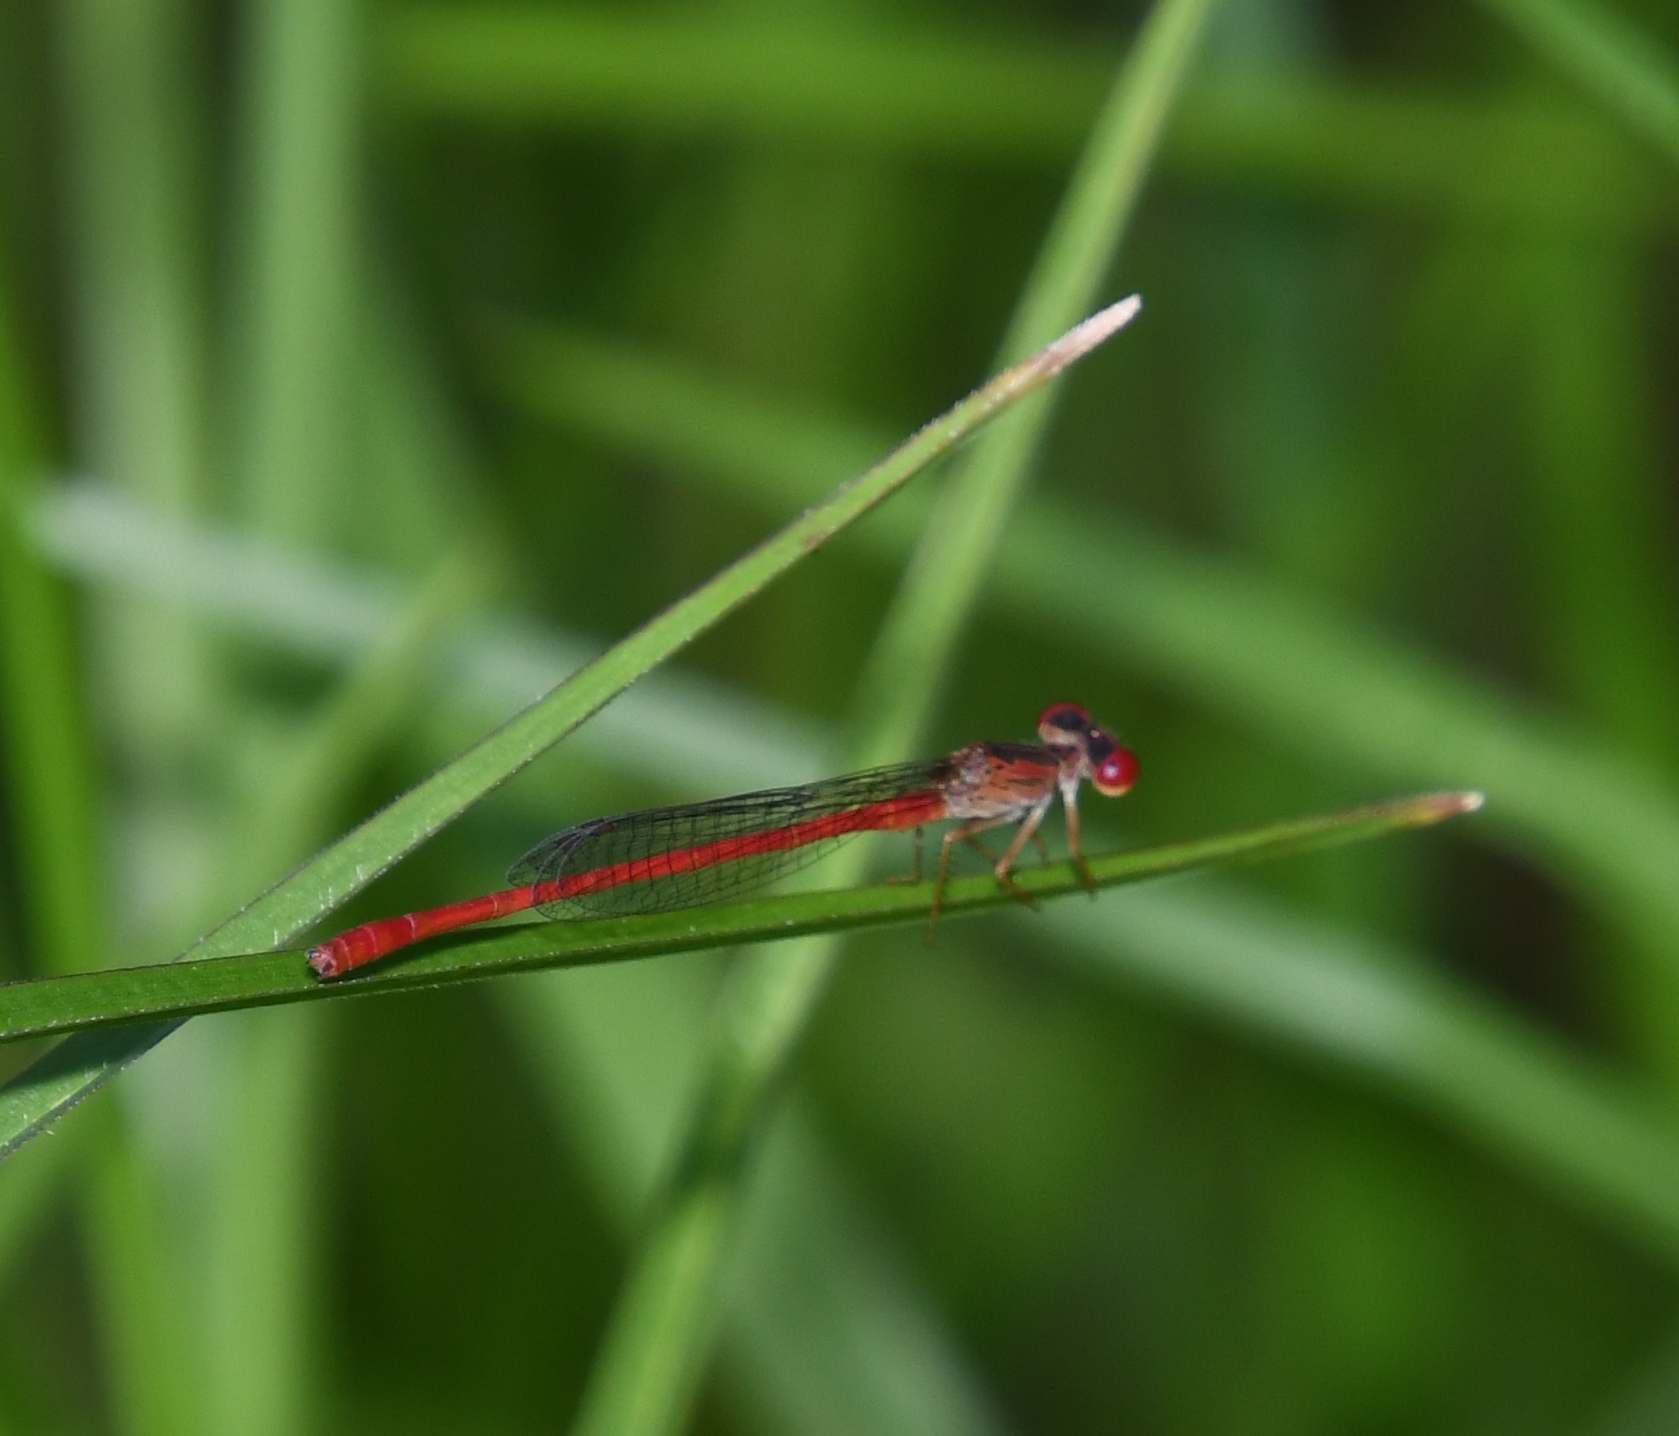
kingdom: Animalia
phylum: Arthropoda
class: Insecta
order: Odonata
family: Coenagrionidae
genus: Telebasis
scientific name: Telebasis byersi
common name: Duckweed firetail
